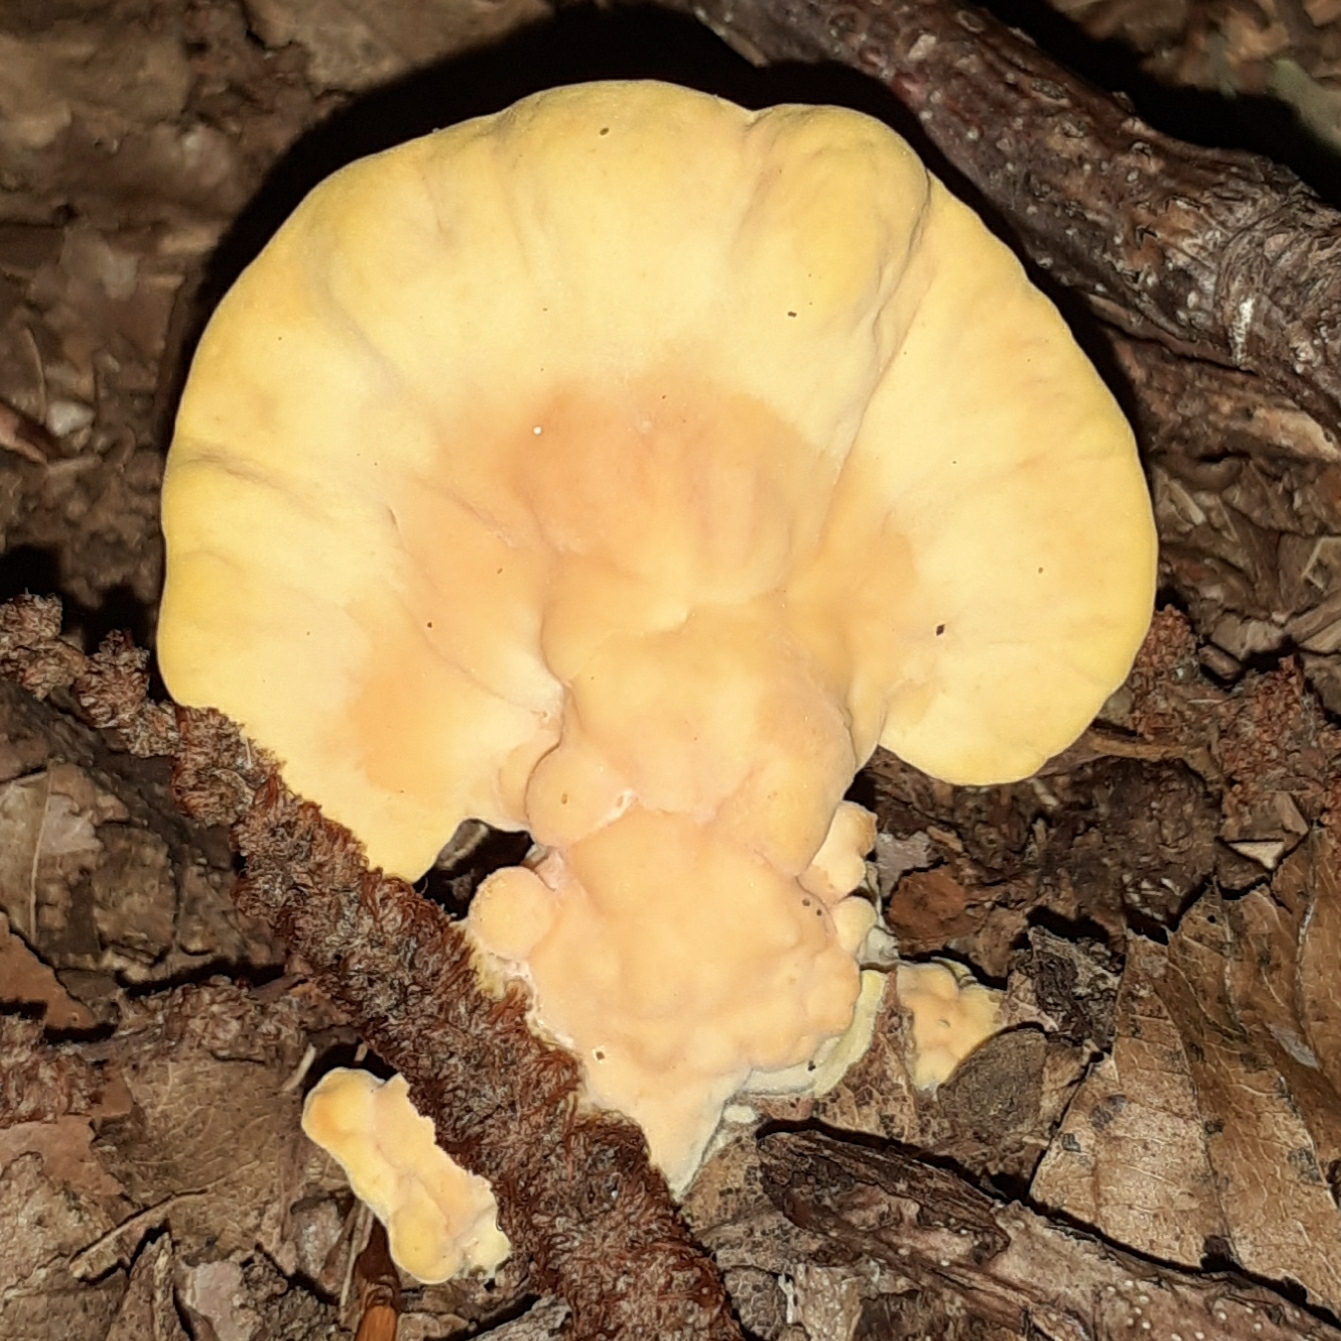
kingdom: Fungi
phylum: Basidiomycota
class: Agaricomycetes
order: Polyporales
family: Laetiporaceae
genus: Laetiporus
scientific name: Laetiporus sulphureus
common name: Chicken of the woods
